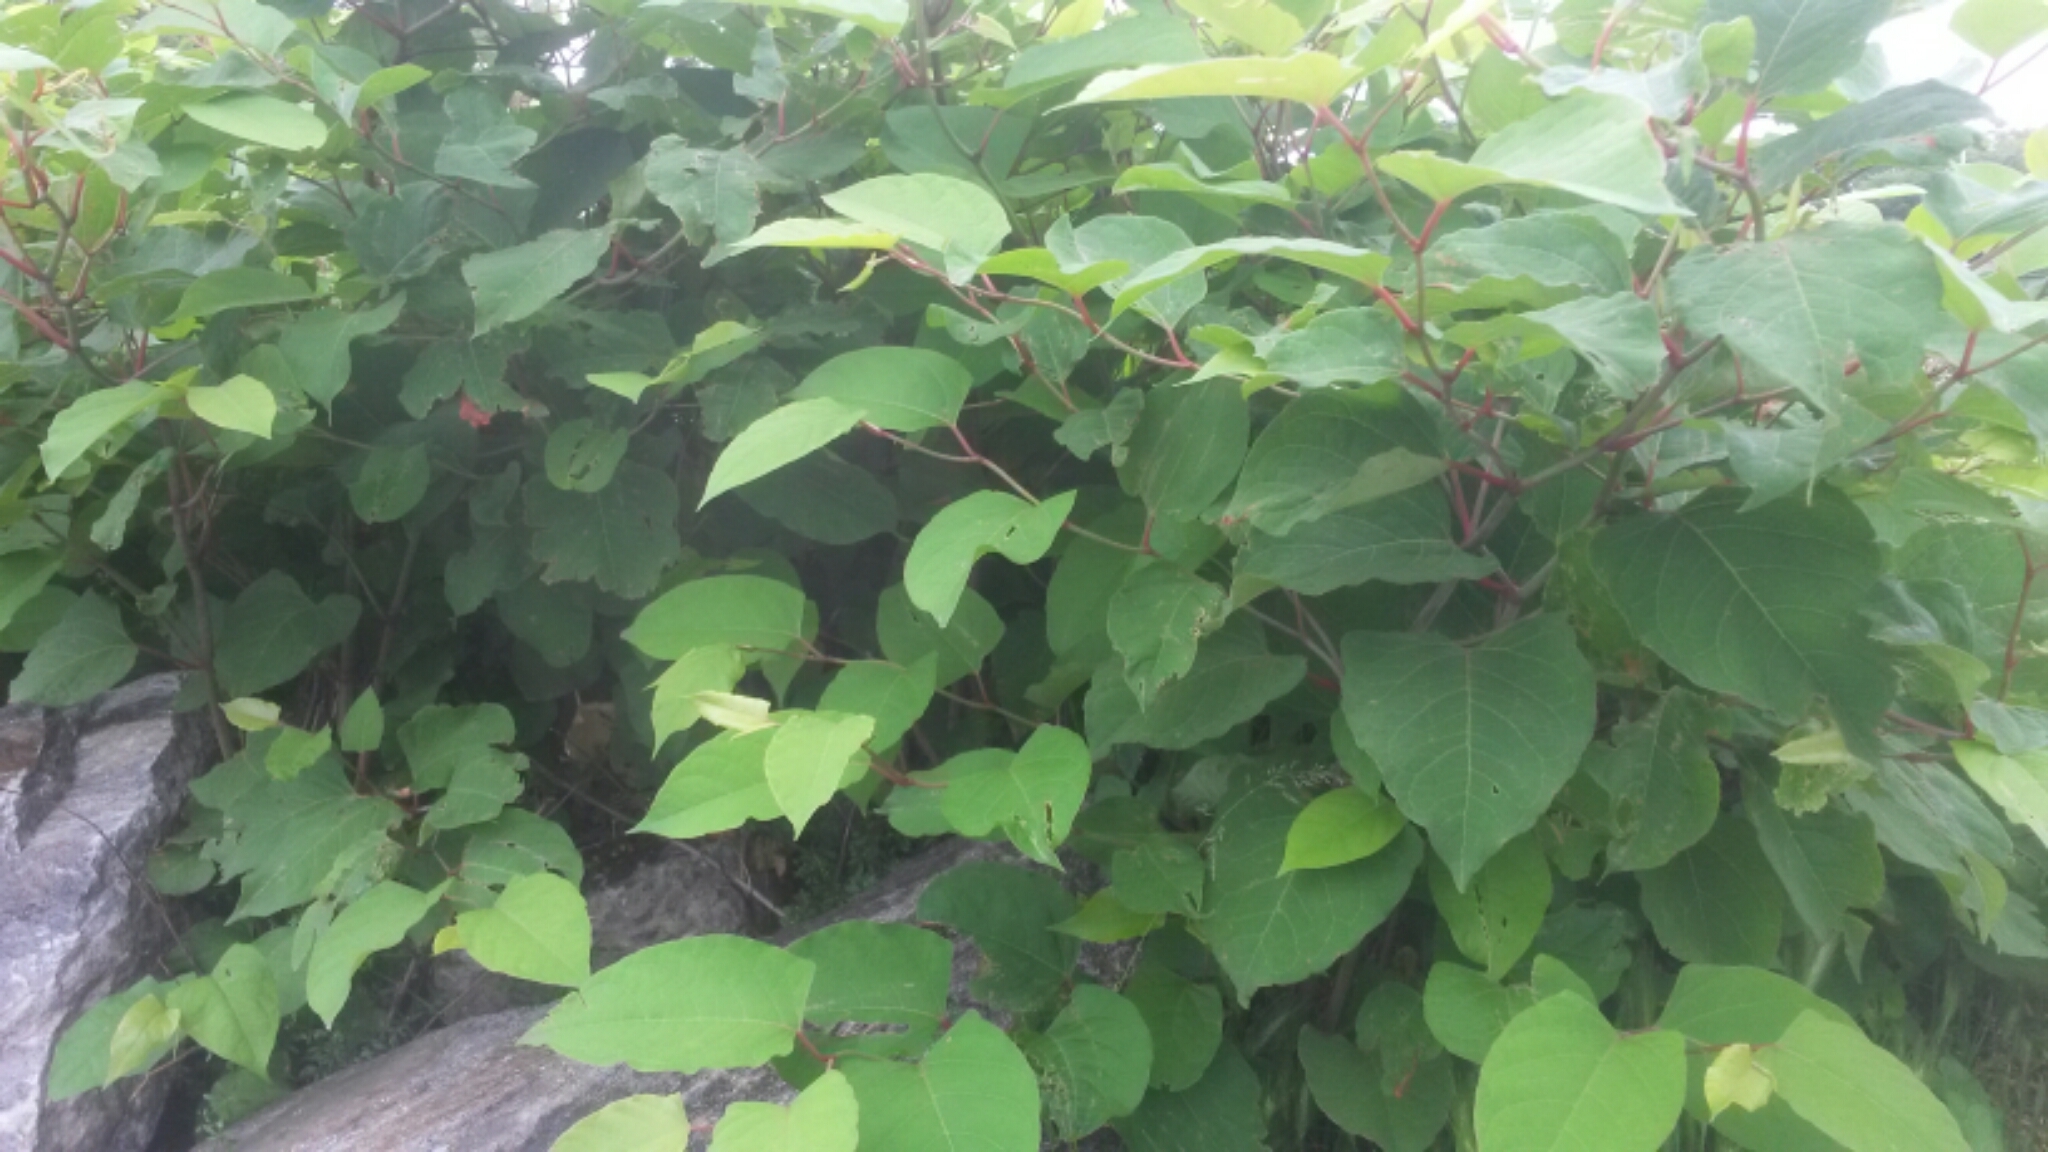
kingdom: Plantae
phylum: Tracheophyta
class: Magnoliopsida
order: Caryophyllales
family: Polygonaceae
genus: Reynoutria
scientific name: Reynoutria japonica
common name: Japanese knotweed
